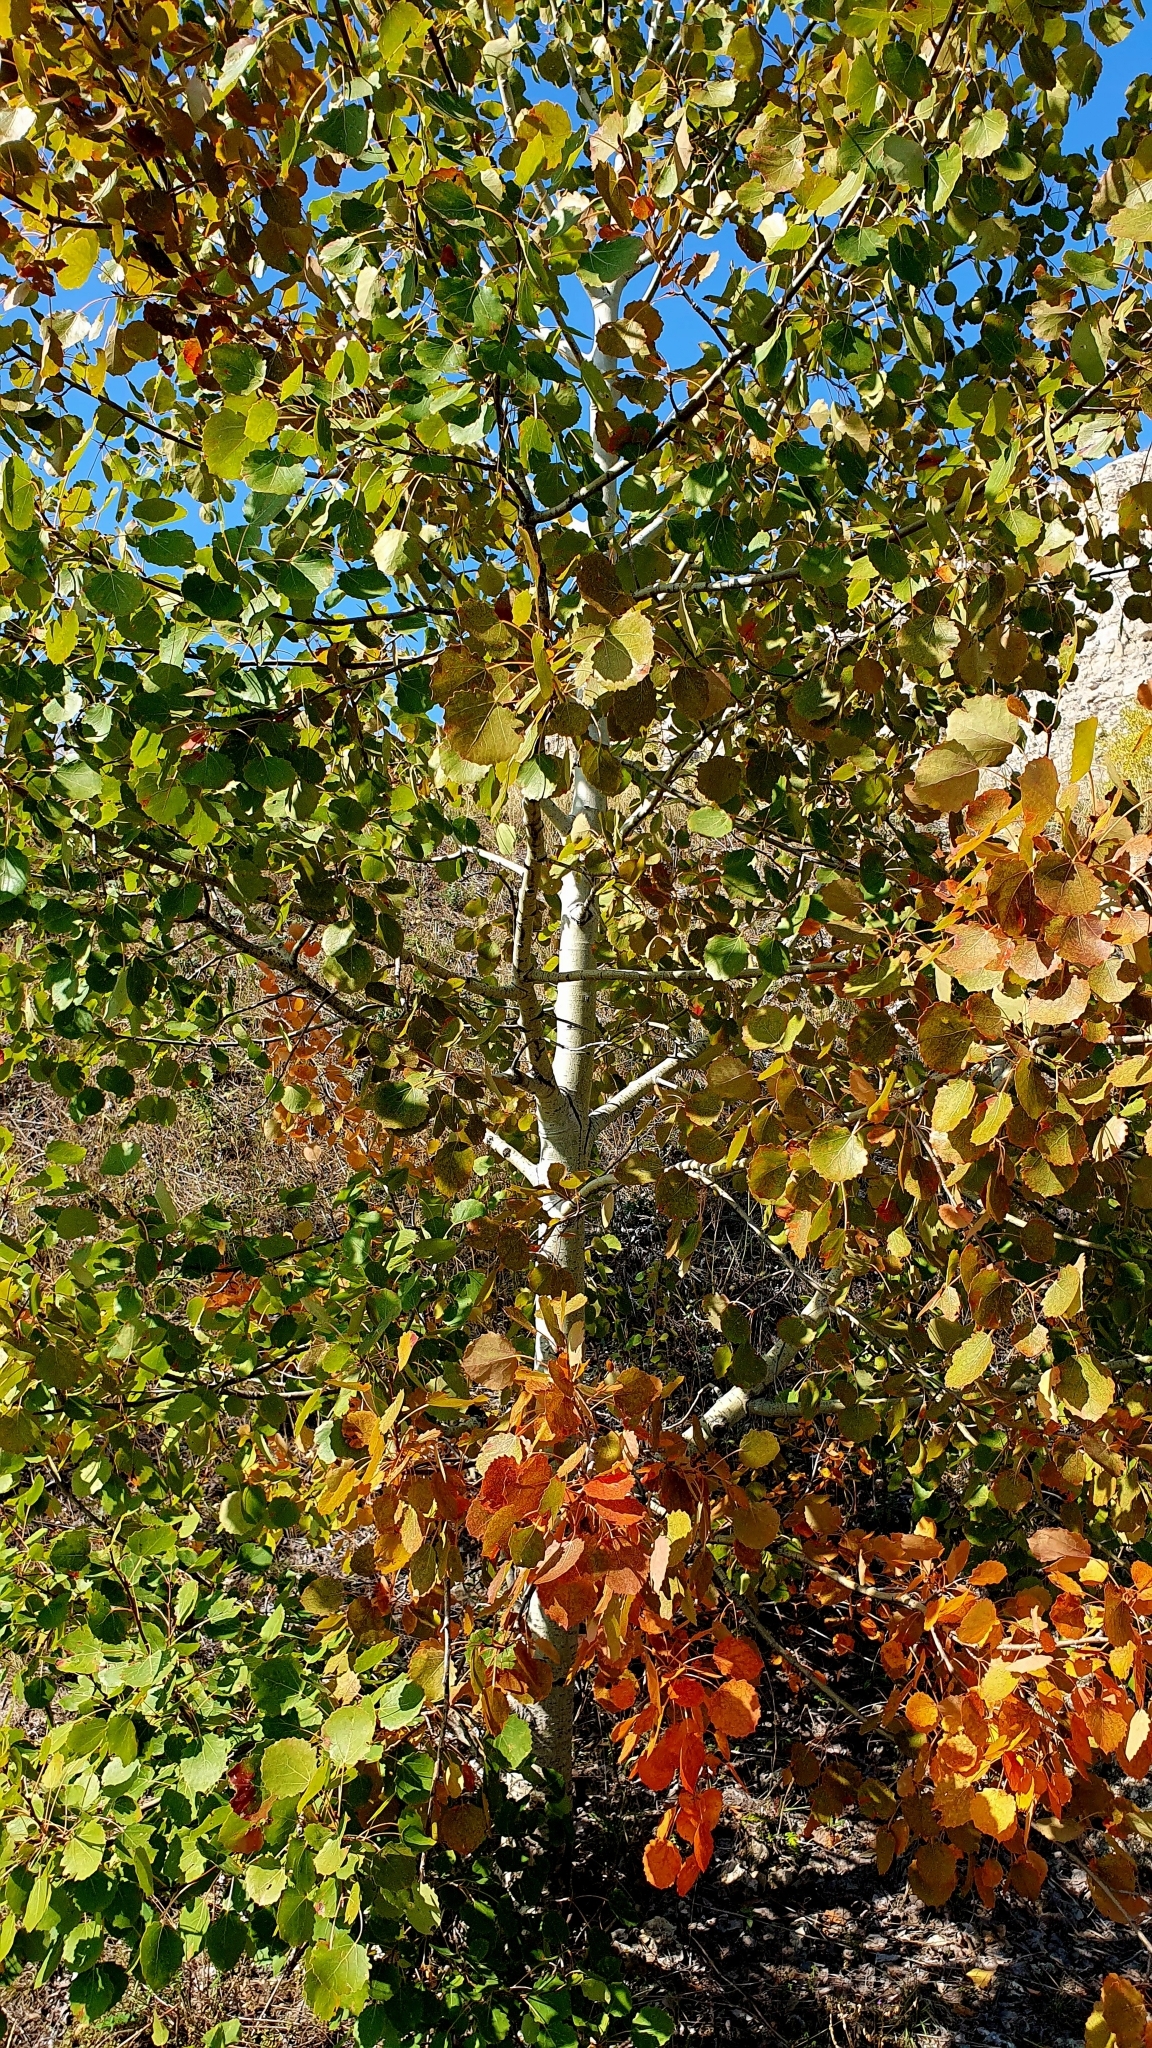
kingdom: Plantae
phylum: Tracheophyta
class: Magnoliopsida
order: Malpighiales
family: Salicaceae
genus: Populus
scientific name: Populus tremula
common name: European aspen
